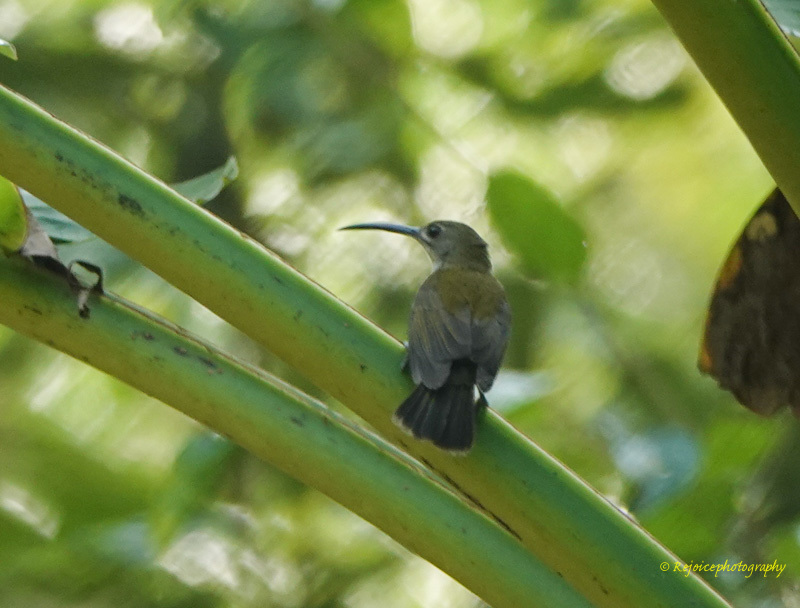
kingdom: Animalia
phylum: Chordata
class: Aves
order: Passeriformes
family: Nectariniidae
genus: Arachnothera
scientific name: Arachnothera longirostra
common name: Little spiderhunter
